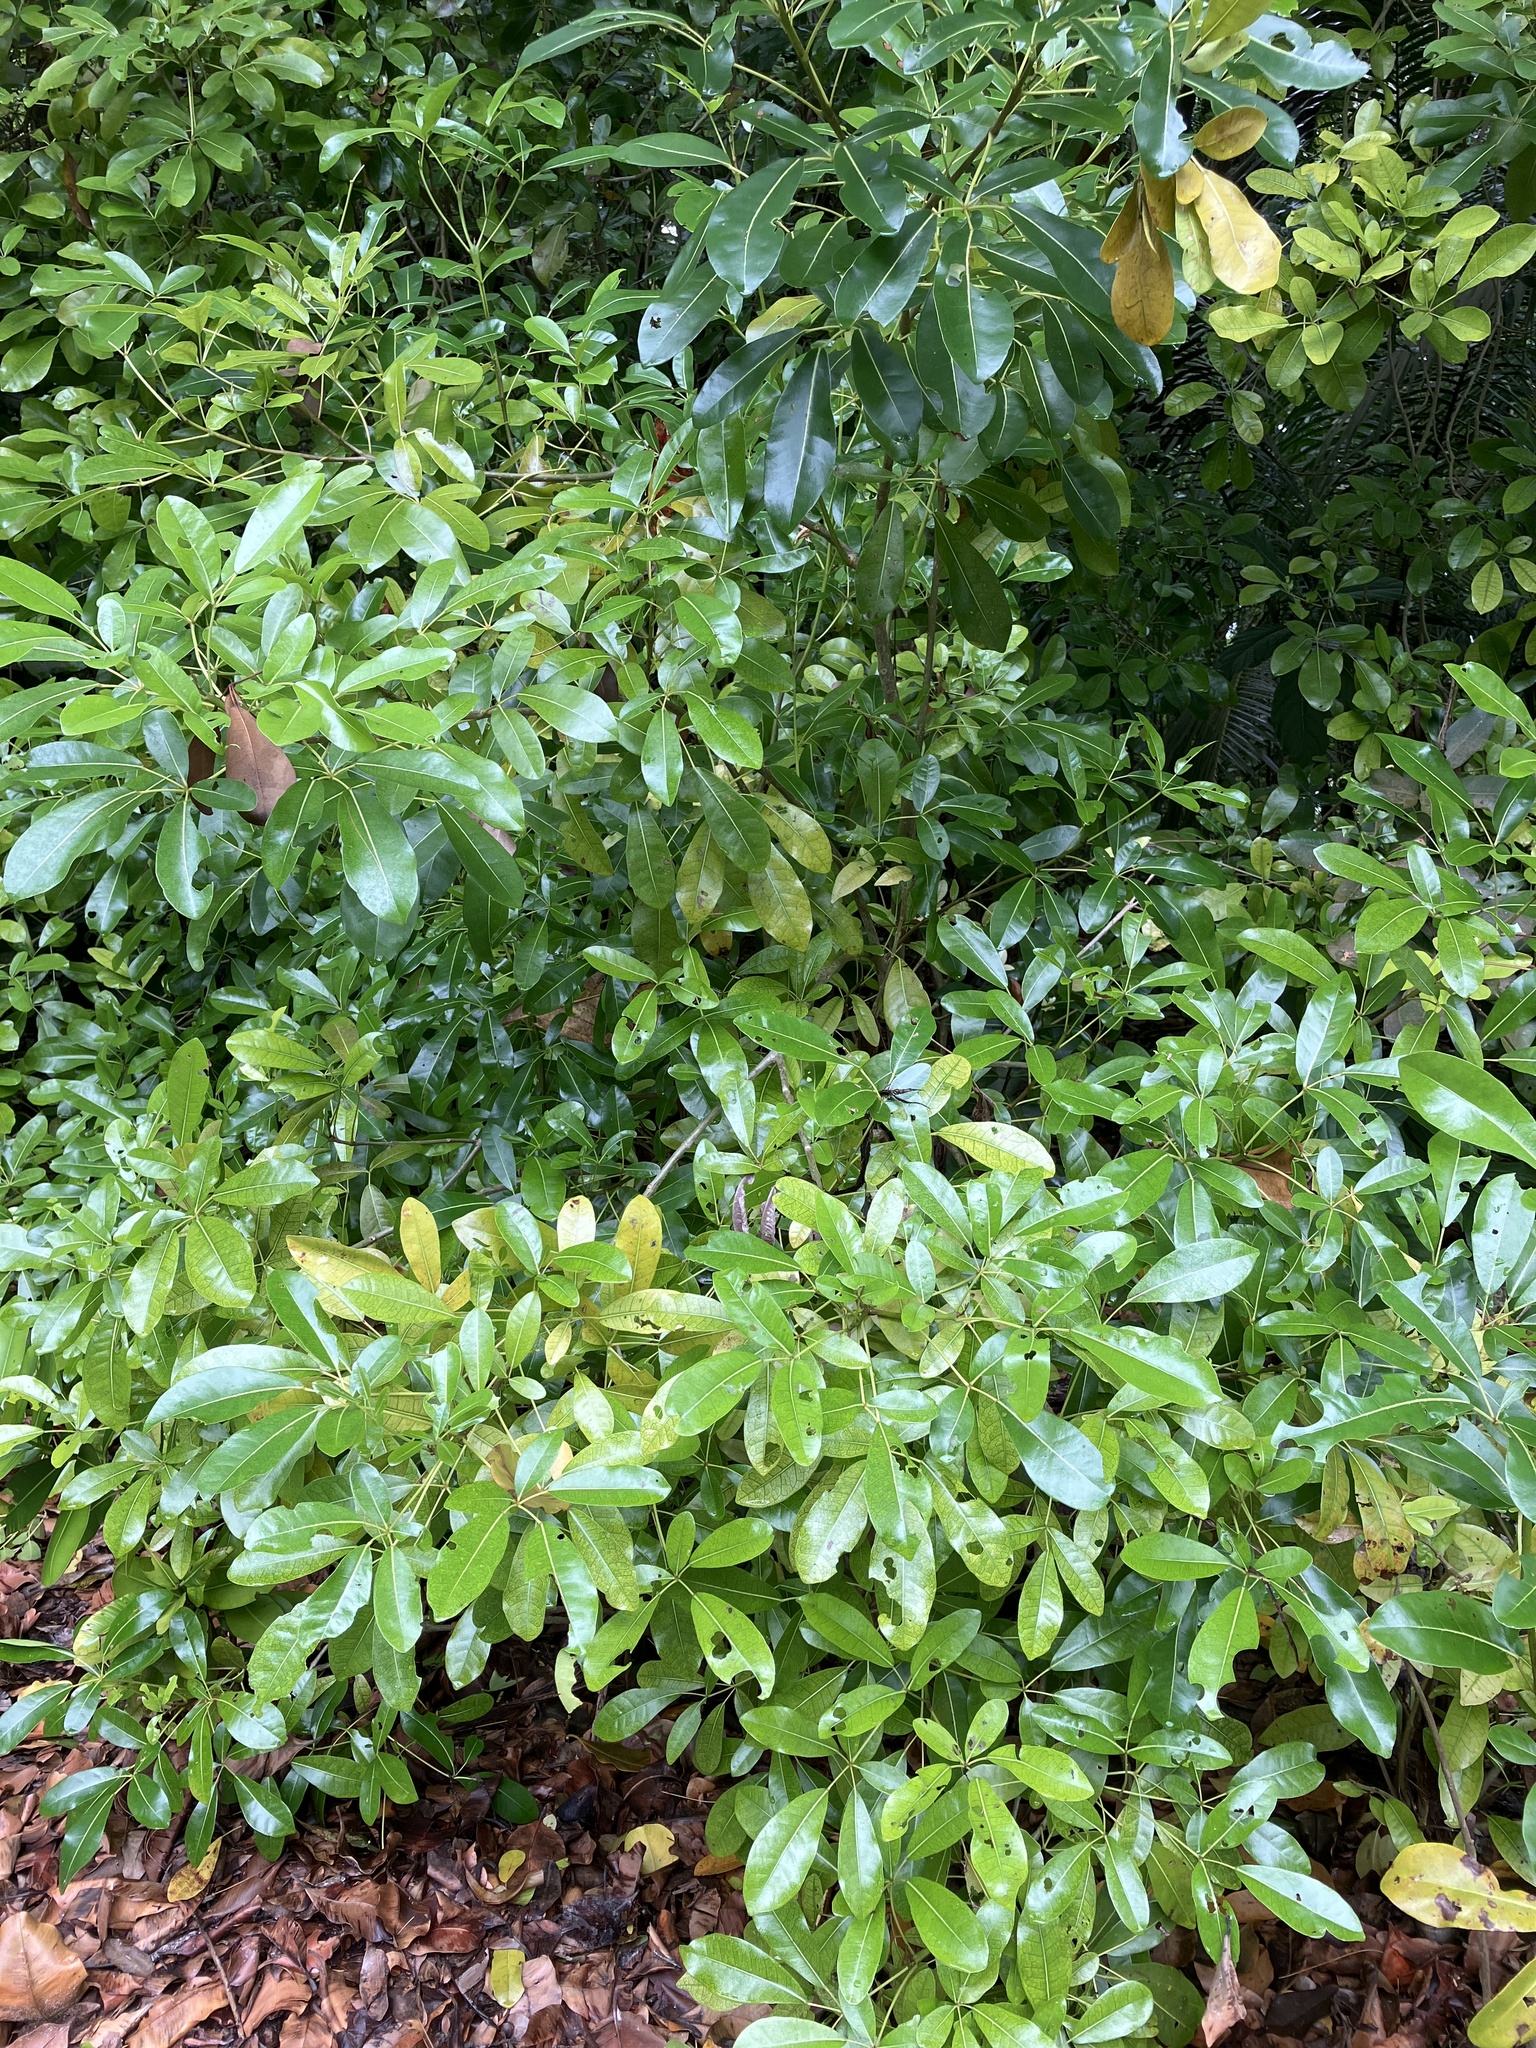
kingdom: Plantae
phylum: Tracheophyta
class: Magnoliopsida
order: Lamiales
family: Bignoniaceae
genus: Tabebuia
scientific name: Tabebuia heterophylla
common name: White cedar
